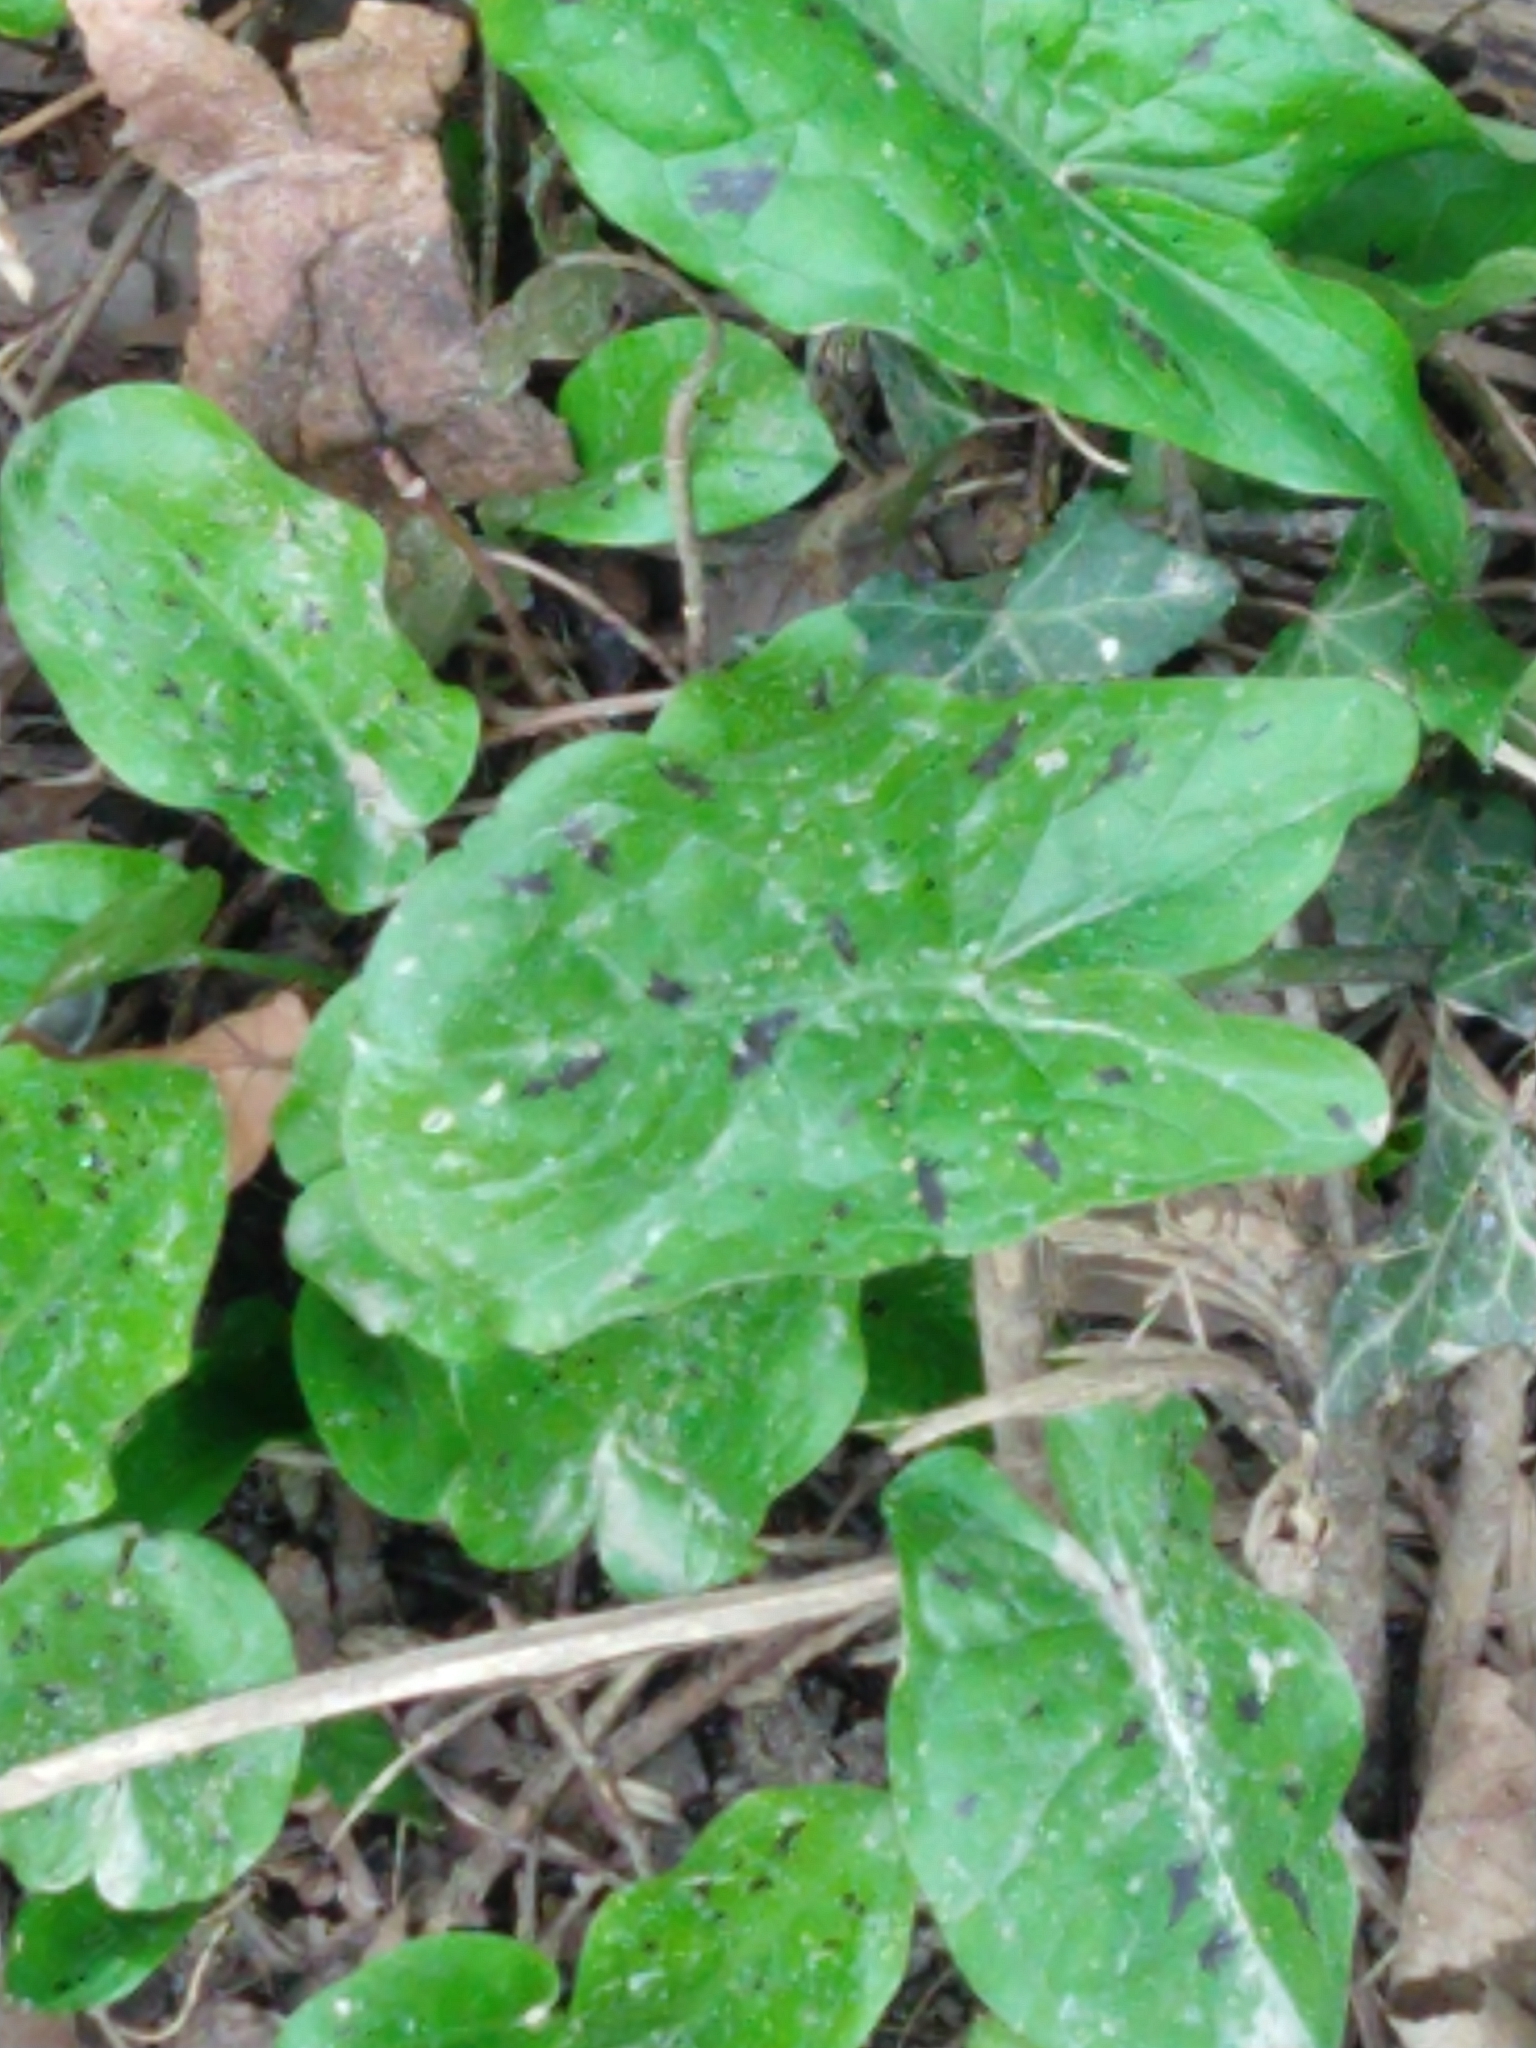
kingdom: Plantae
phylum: Tracheophyta
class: Liliopsida
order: Alismatales
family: Araceae
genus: Arum
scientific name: Arum maculatum
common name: Lords-and-ladies
